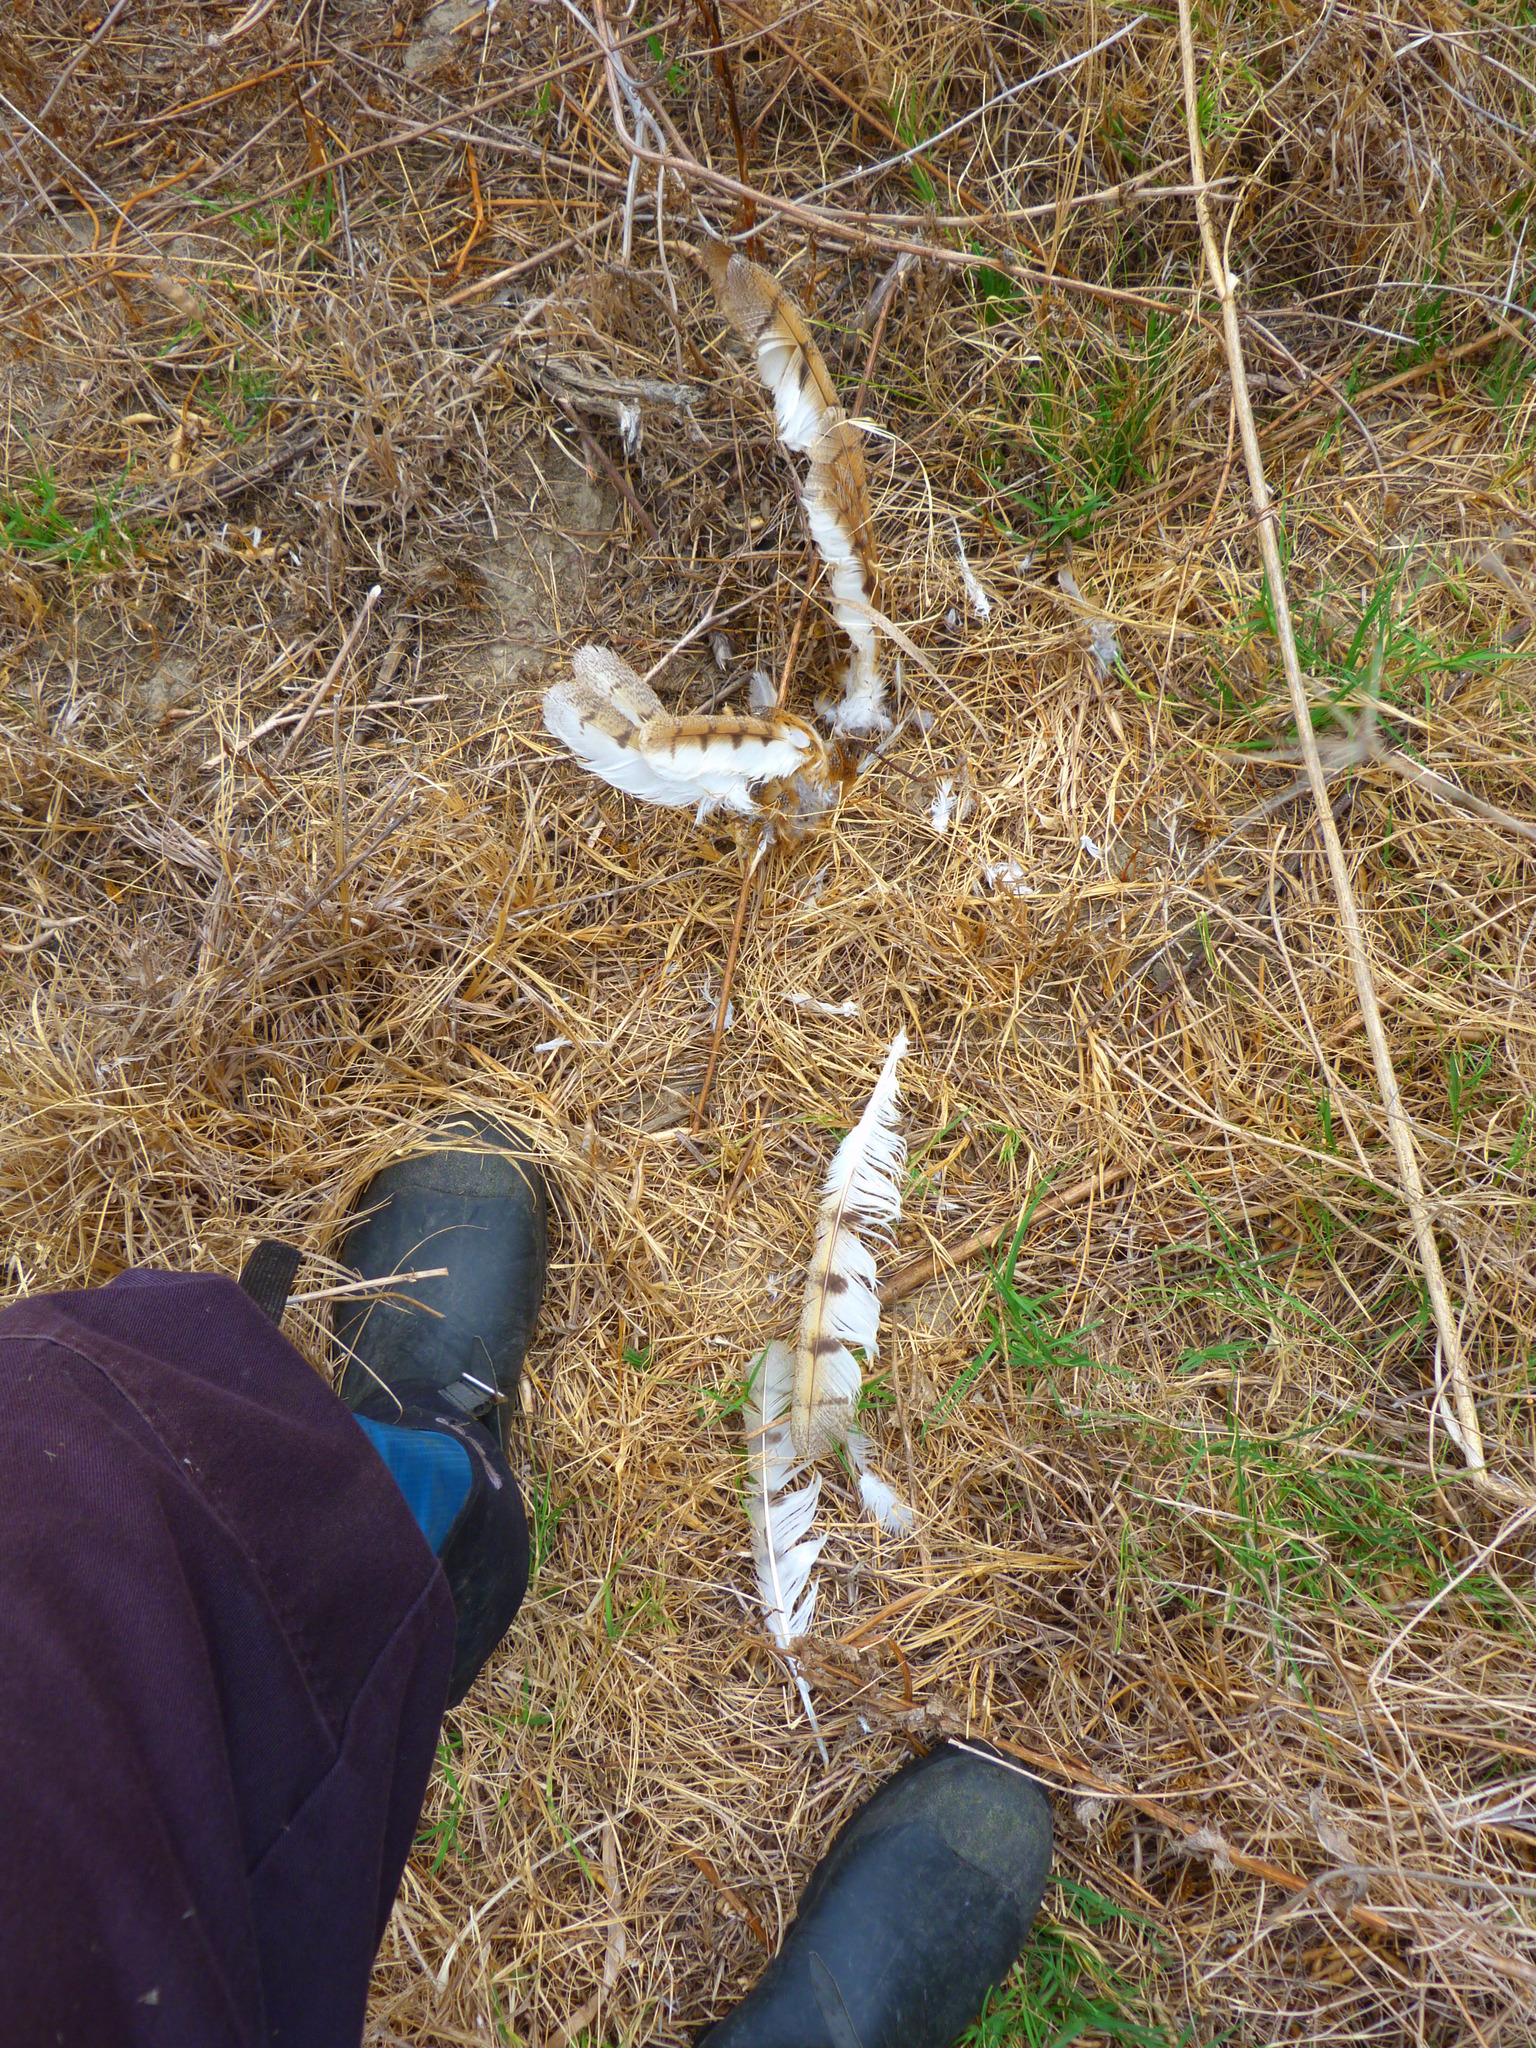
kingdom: Animalia
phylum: Chordata
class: Aves
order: Strigiformes
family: Tytonidae
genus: Tyto
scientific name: Tyto alba
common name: Barn owl
